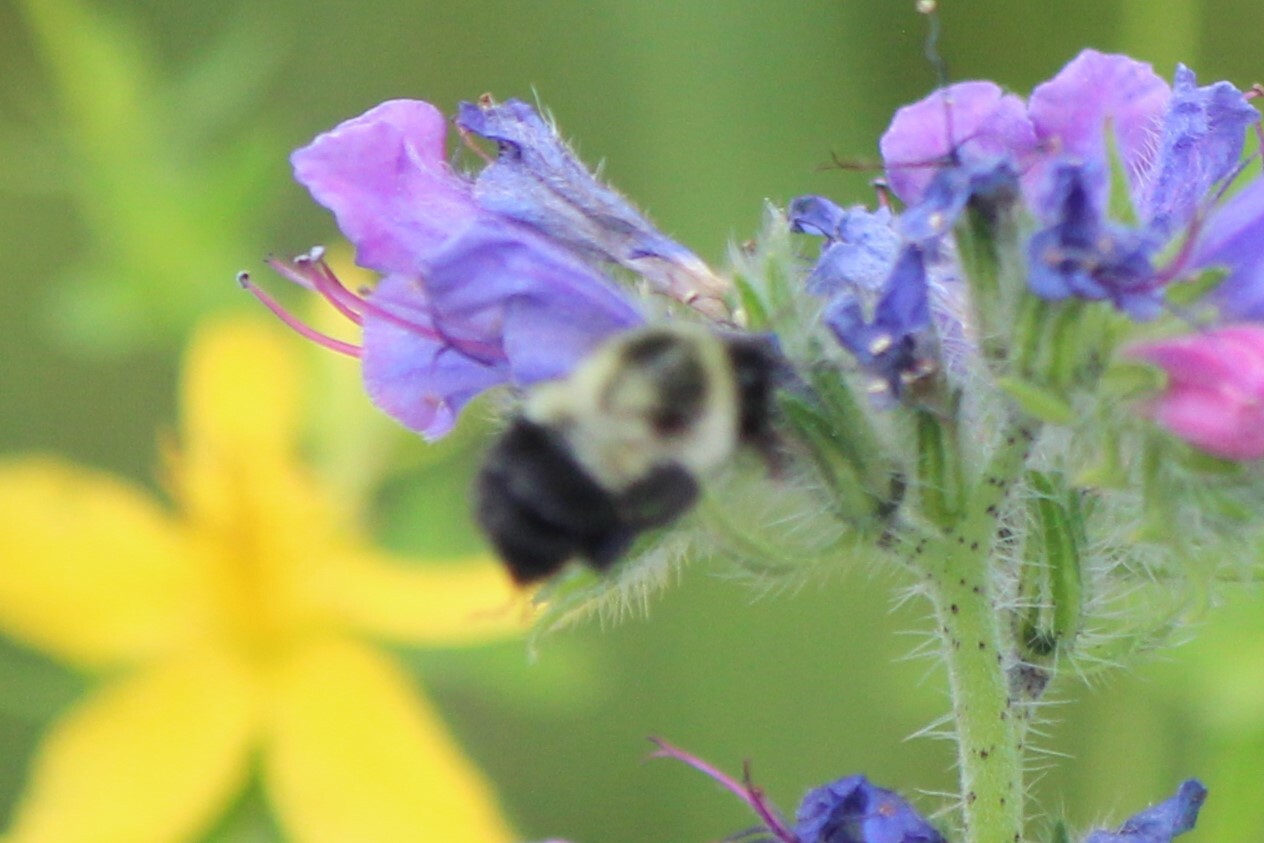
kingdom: Animalia
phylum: Arthropoda
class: Insecta
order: Hymenoptera
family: Apidae
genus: Bombus
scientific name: Bombus impatiens
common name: Common eastern bumble bee
